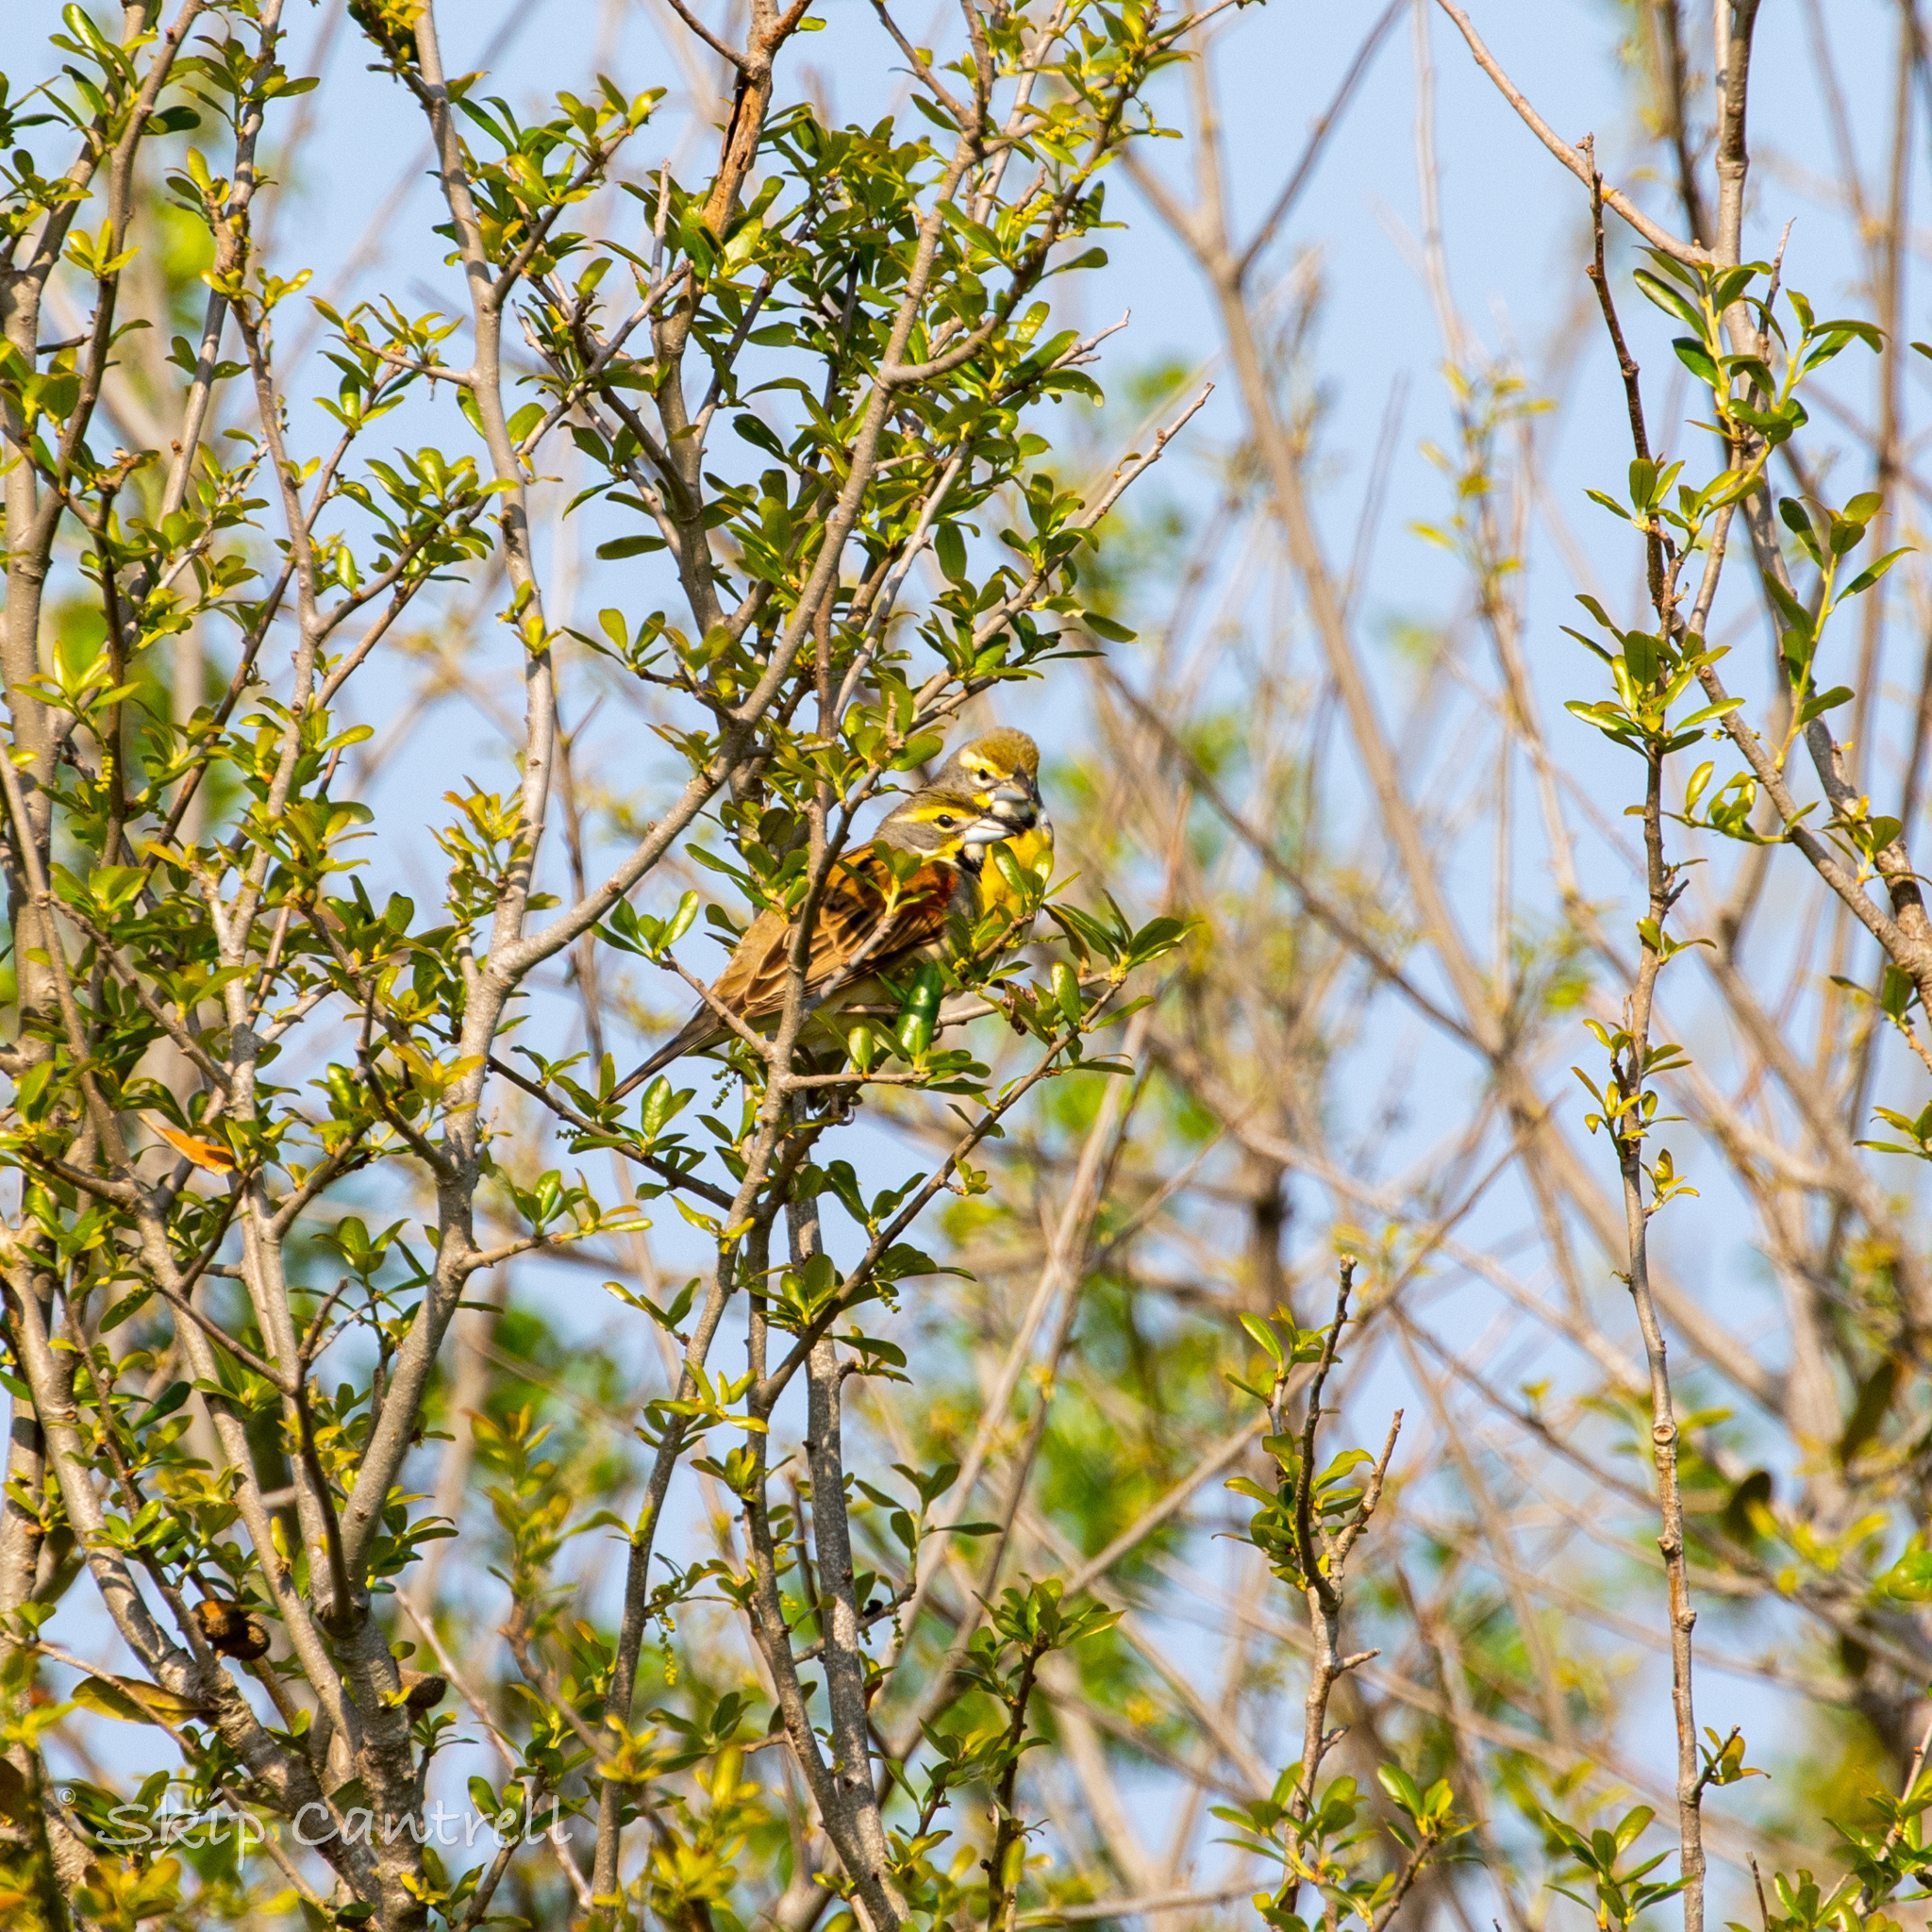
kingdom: Animalia
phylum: Chordata
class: Aves
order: Passeriformes
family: Cardinalidae
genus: Spiza
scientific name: Spiza americana
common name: Dickcissel
